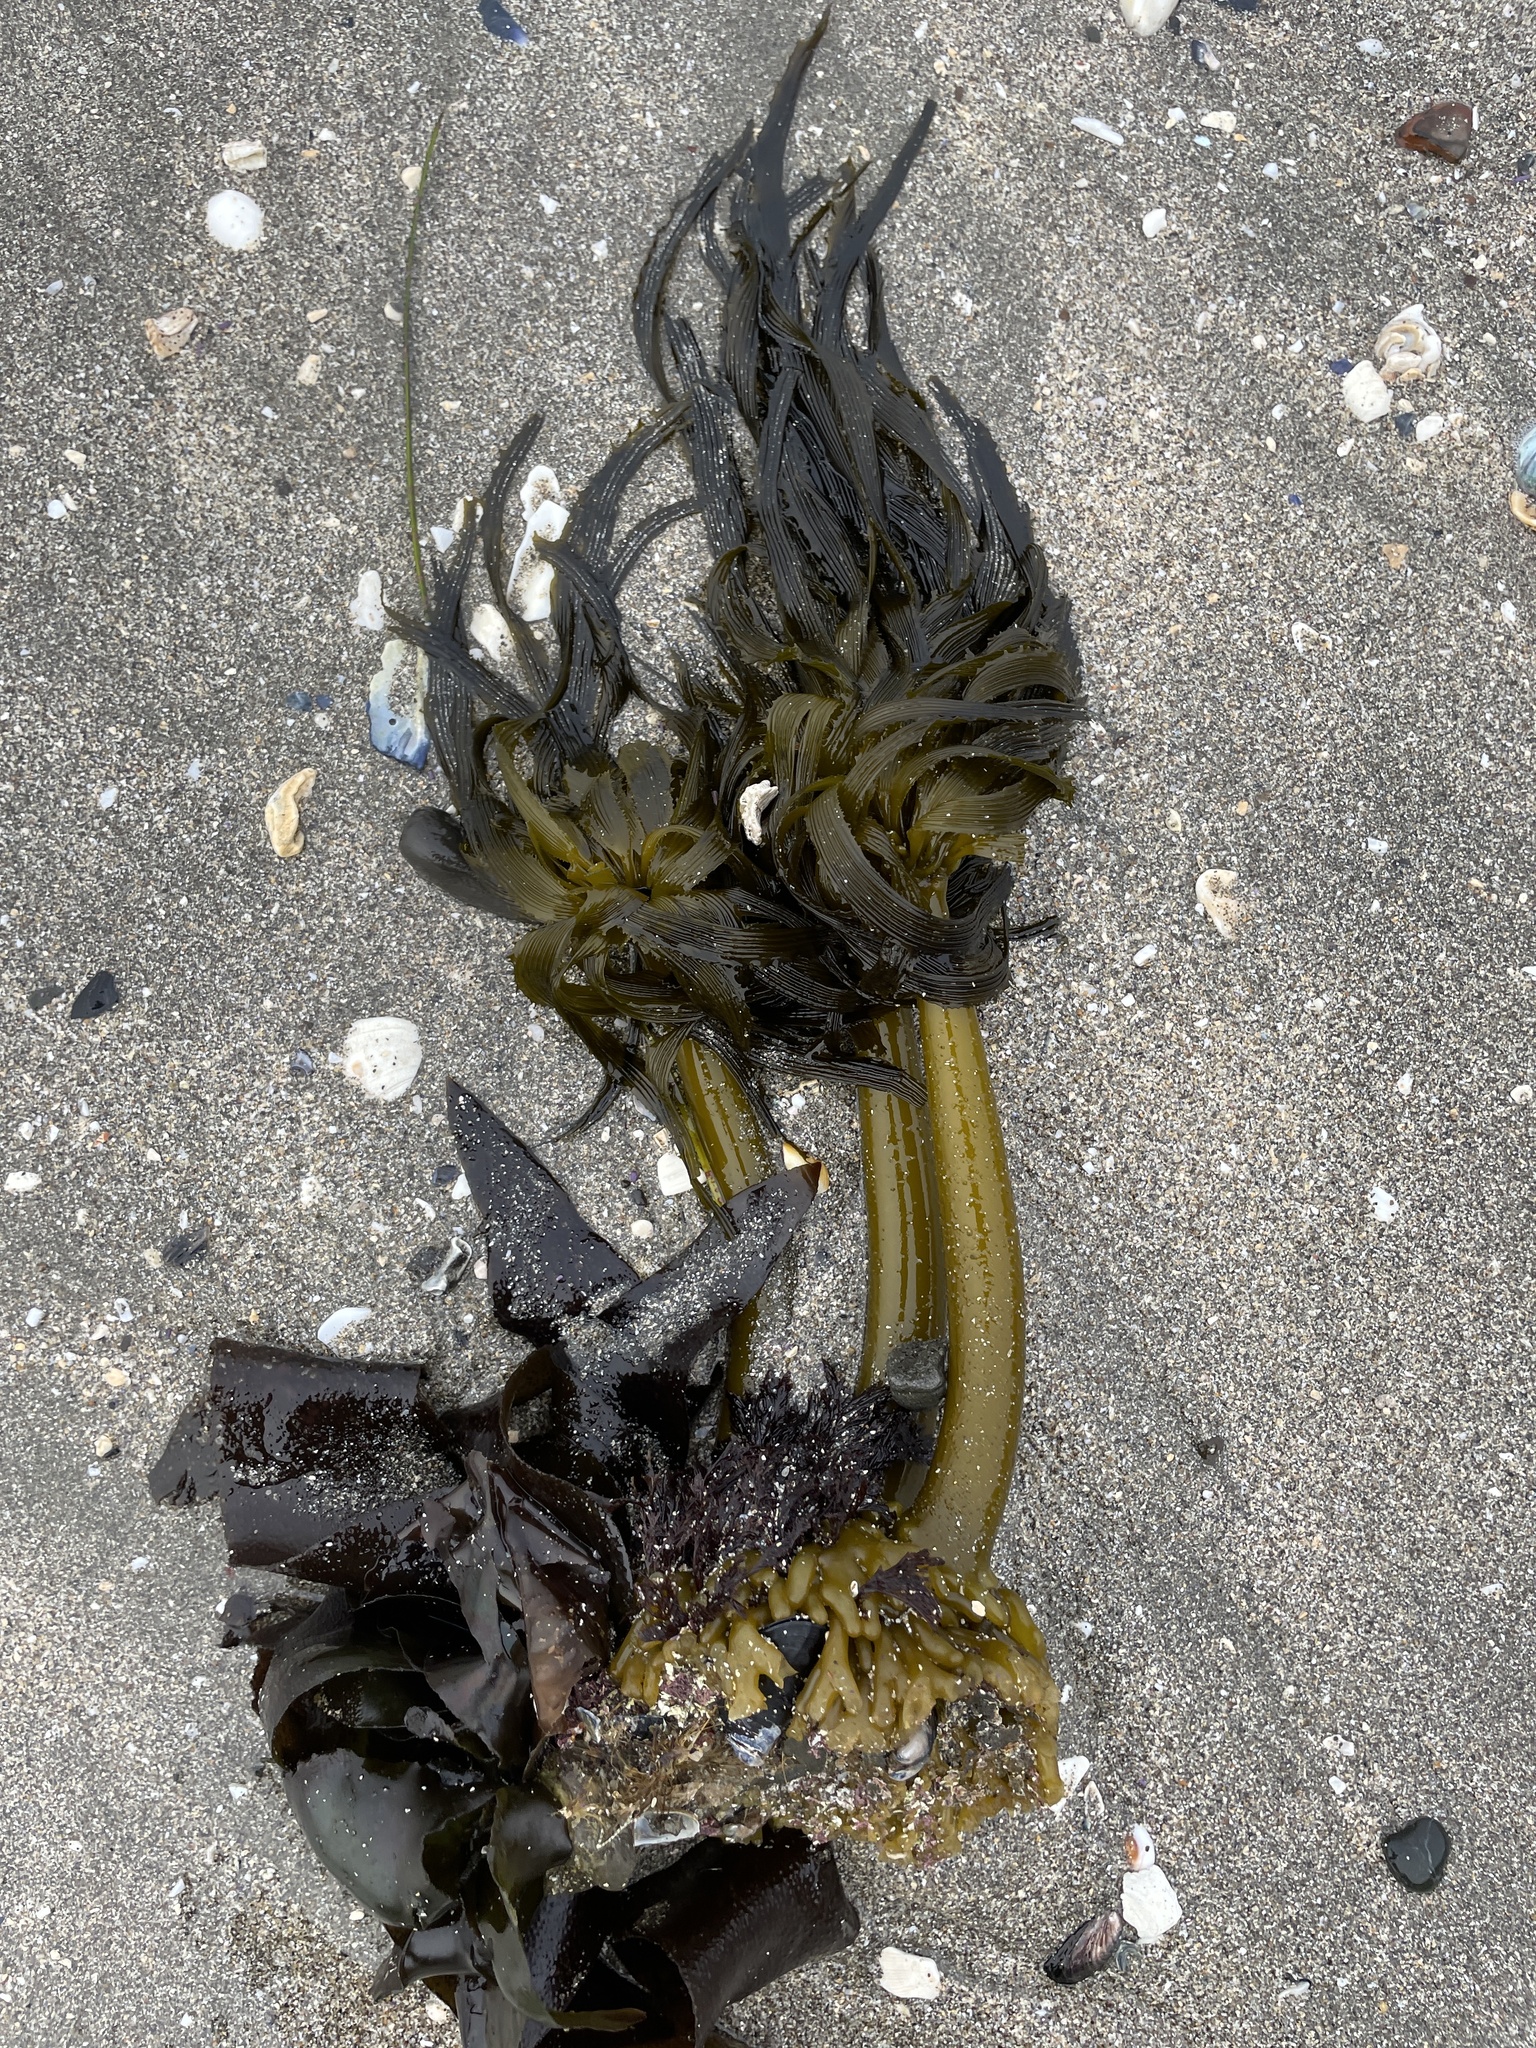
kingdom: Chromista
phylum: Ochrophyta
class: Phaeophyceae
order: Laminariales
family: Laminariaceae
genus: Postelsia
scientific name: Postelsia palmiformis
